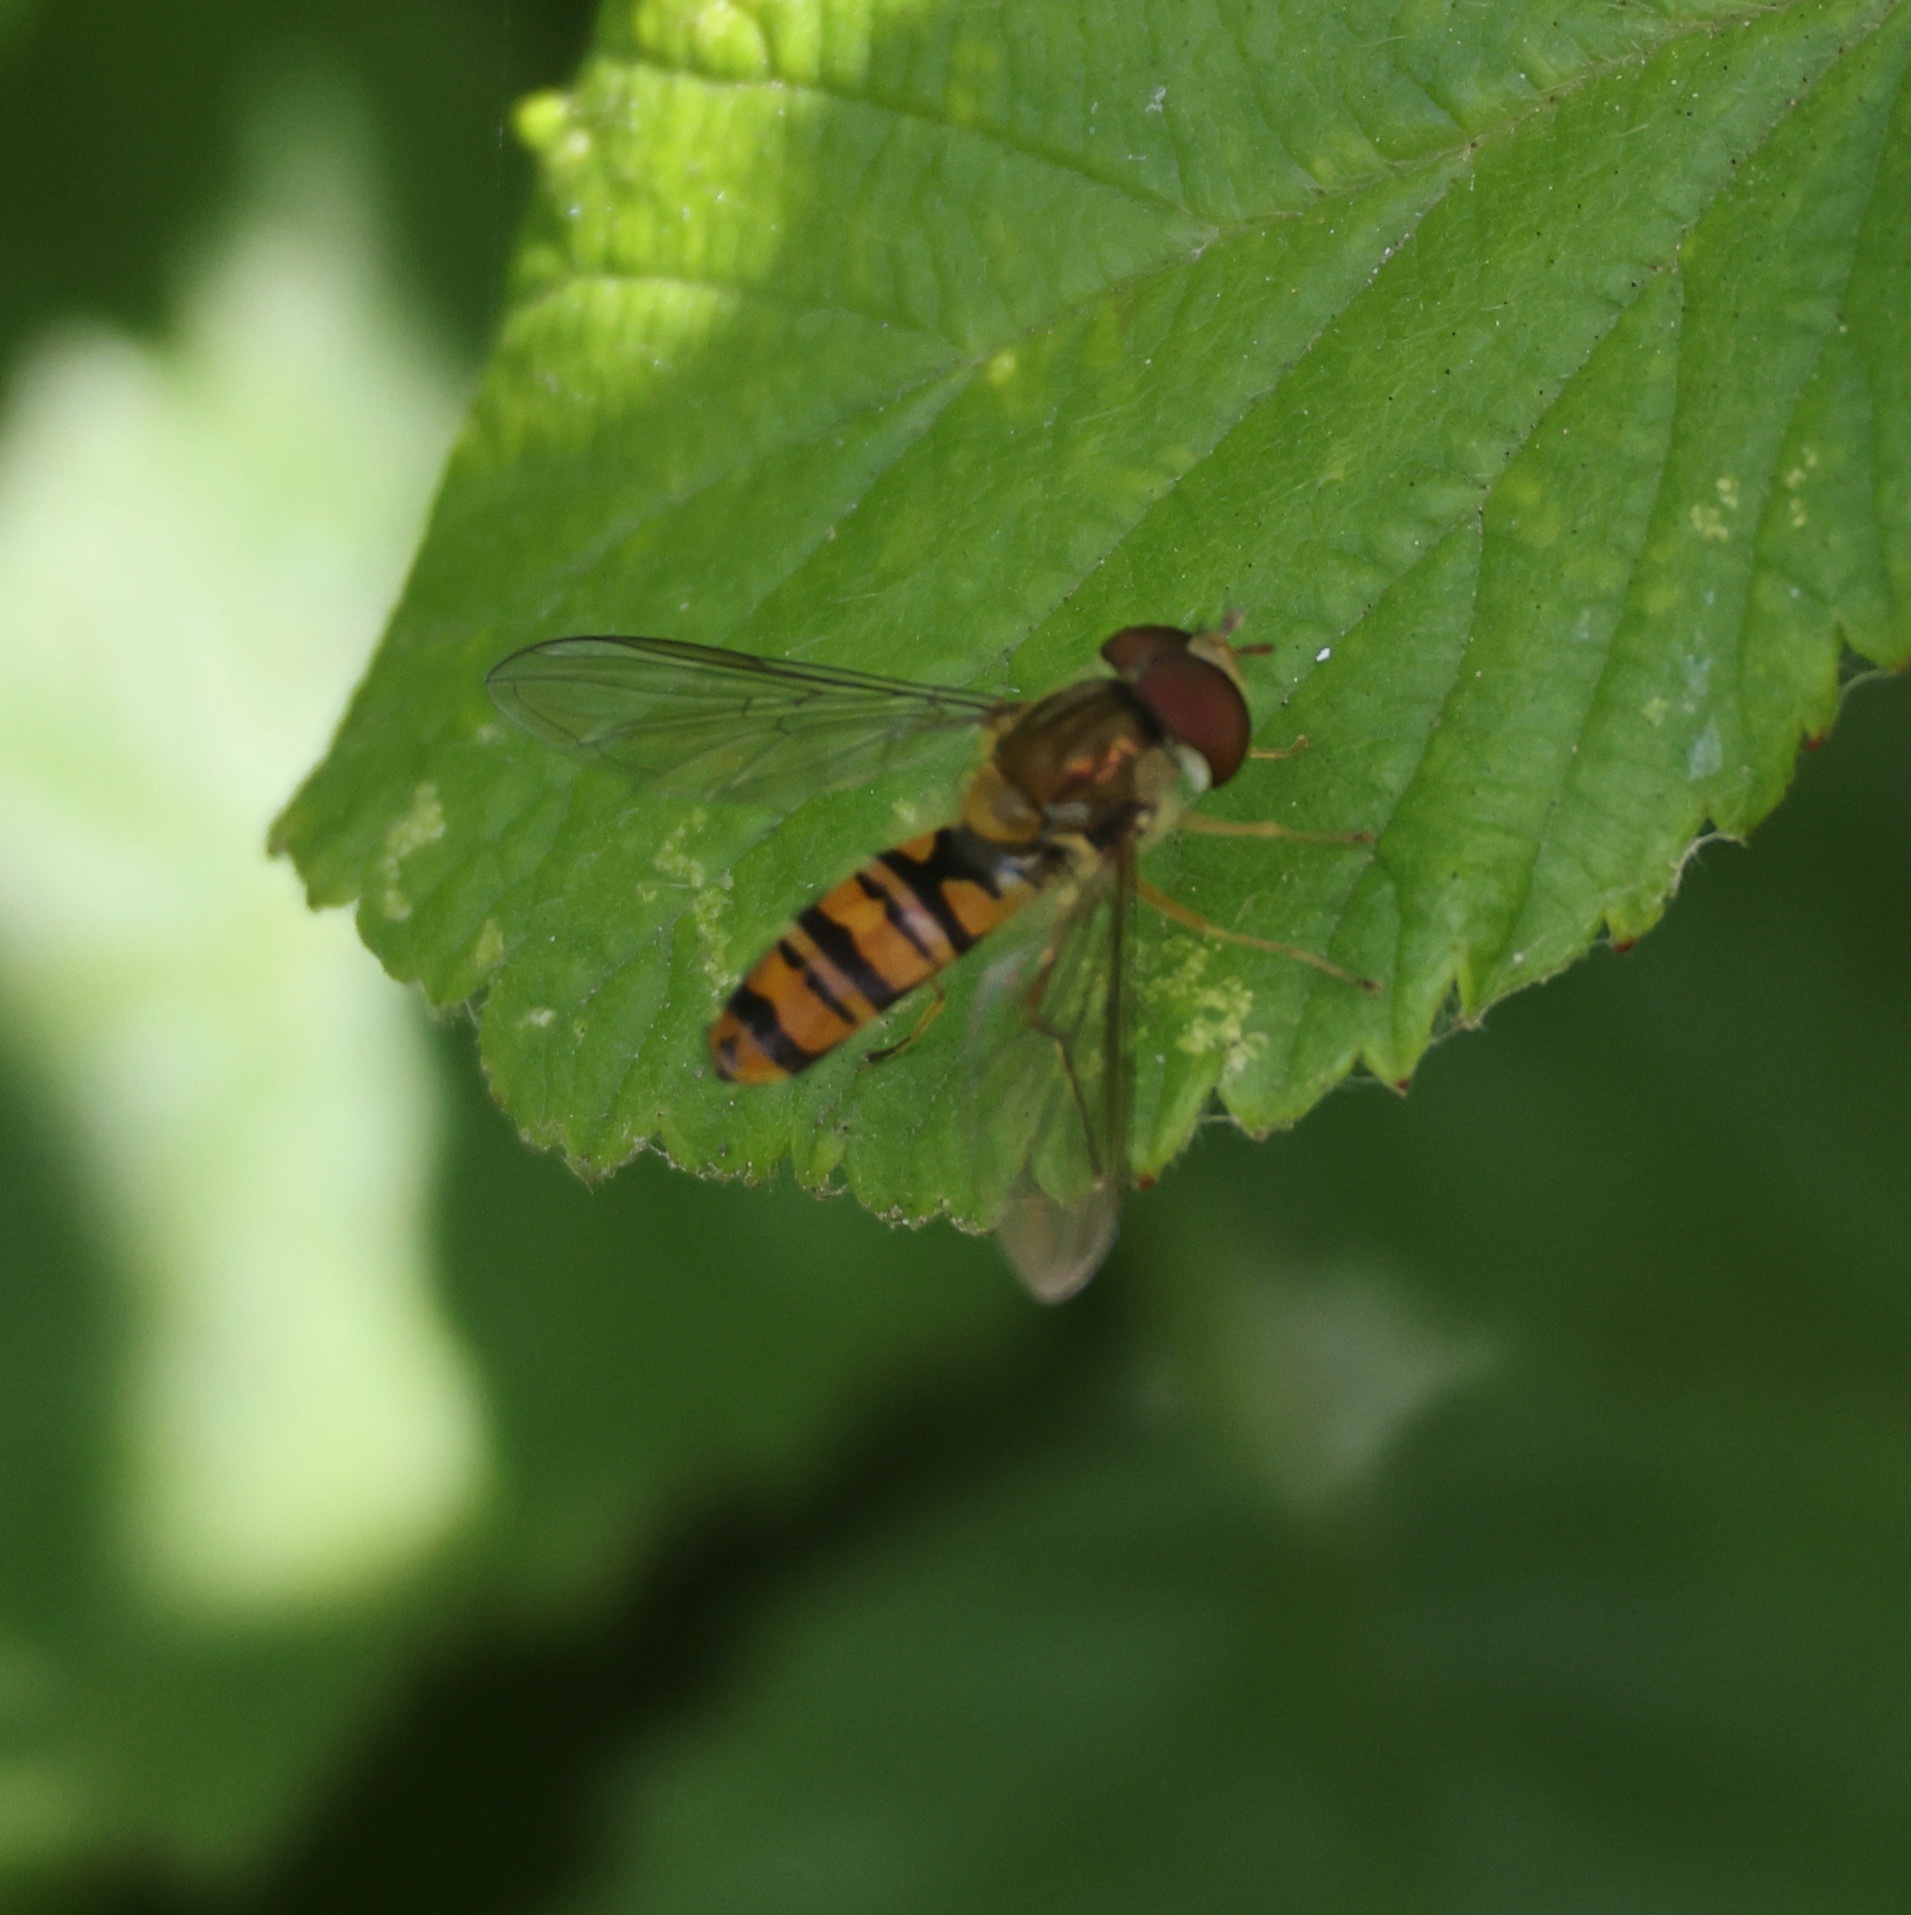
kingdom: Animalia
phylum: Arthropoda
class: Insecta
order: Diptera
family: Syrphidae
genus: Episyrphus
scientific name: Episyrphus balteatus
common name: Marmalade hoverfly
